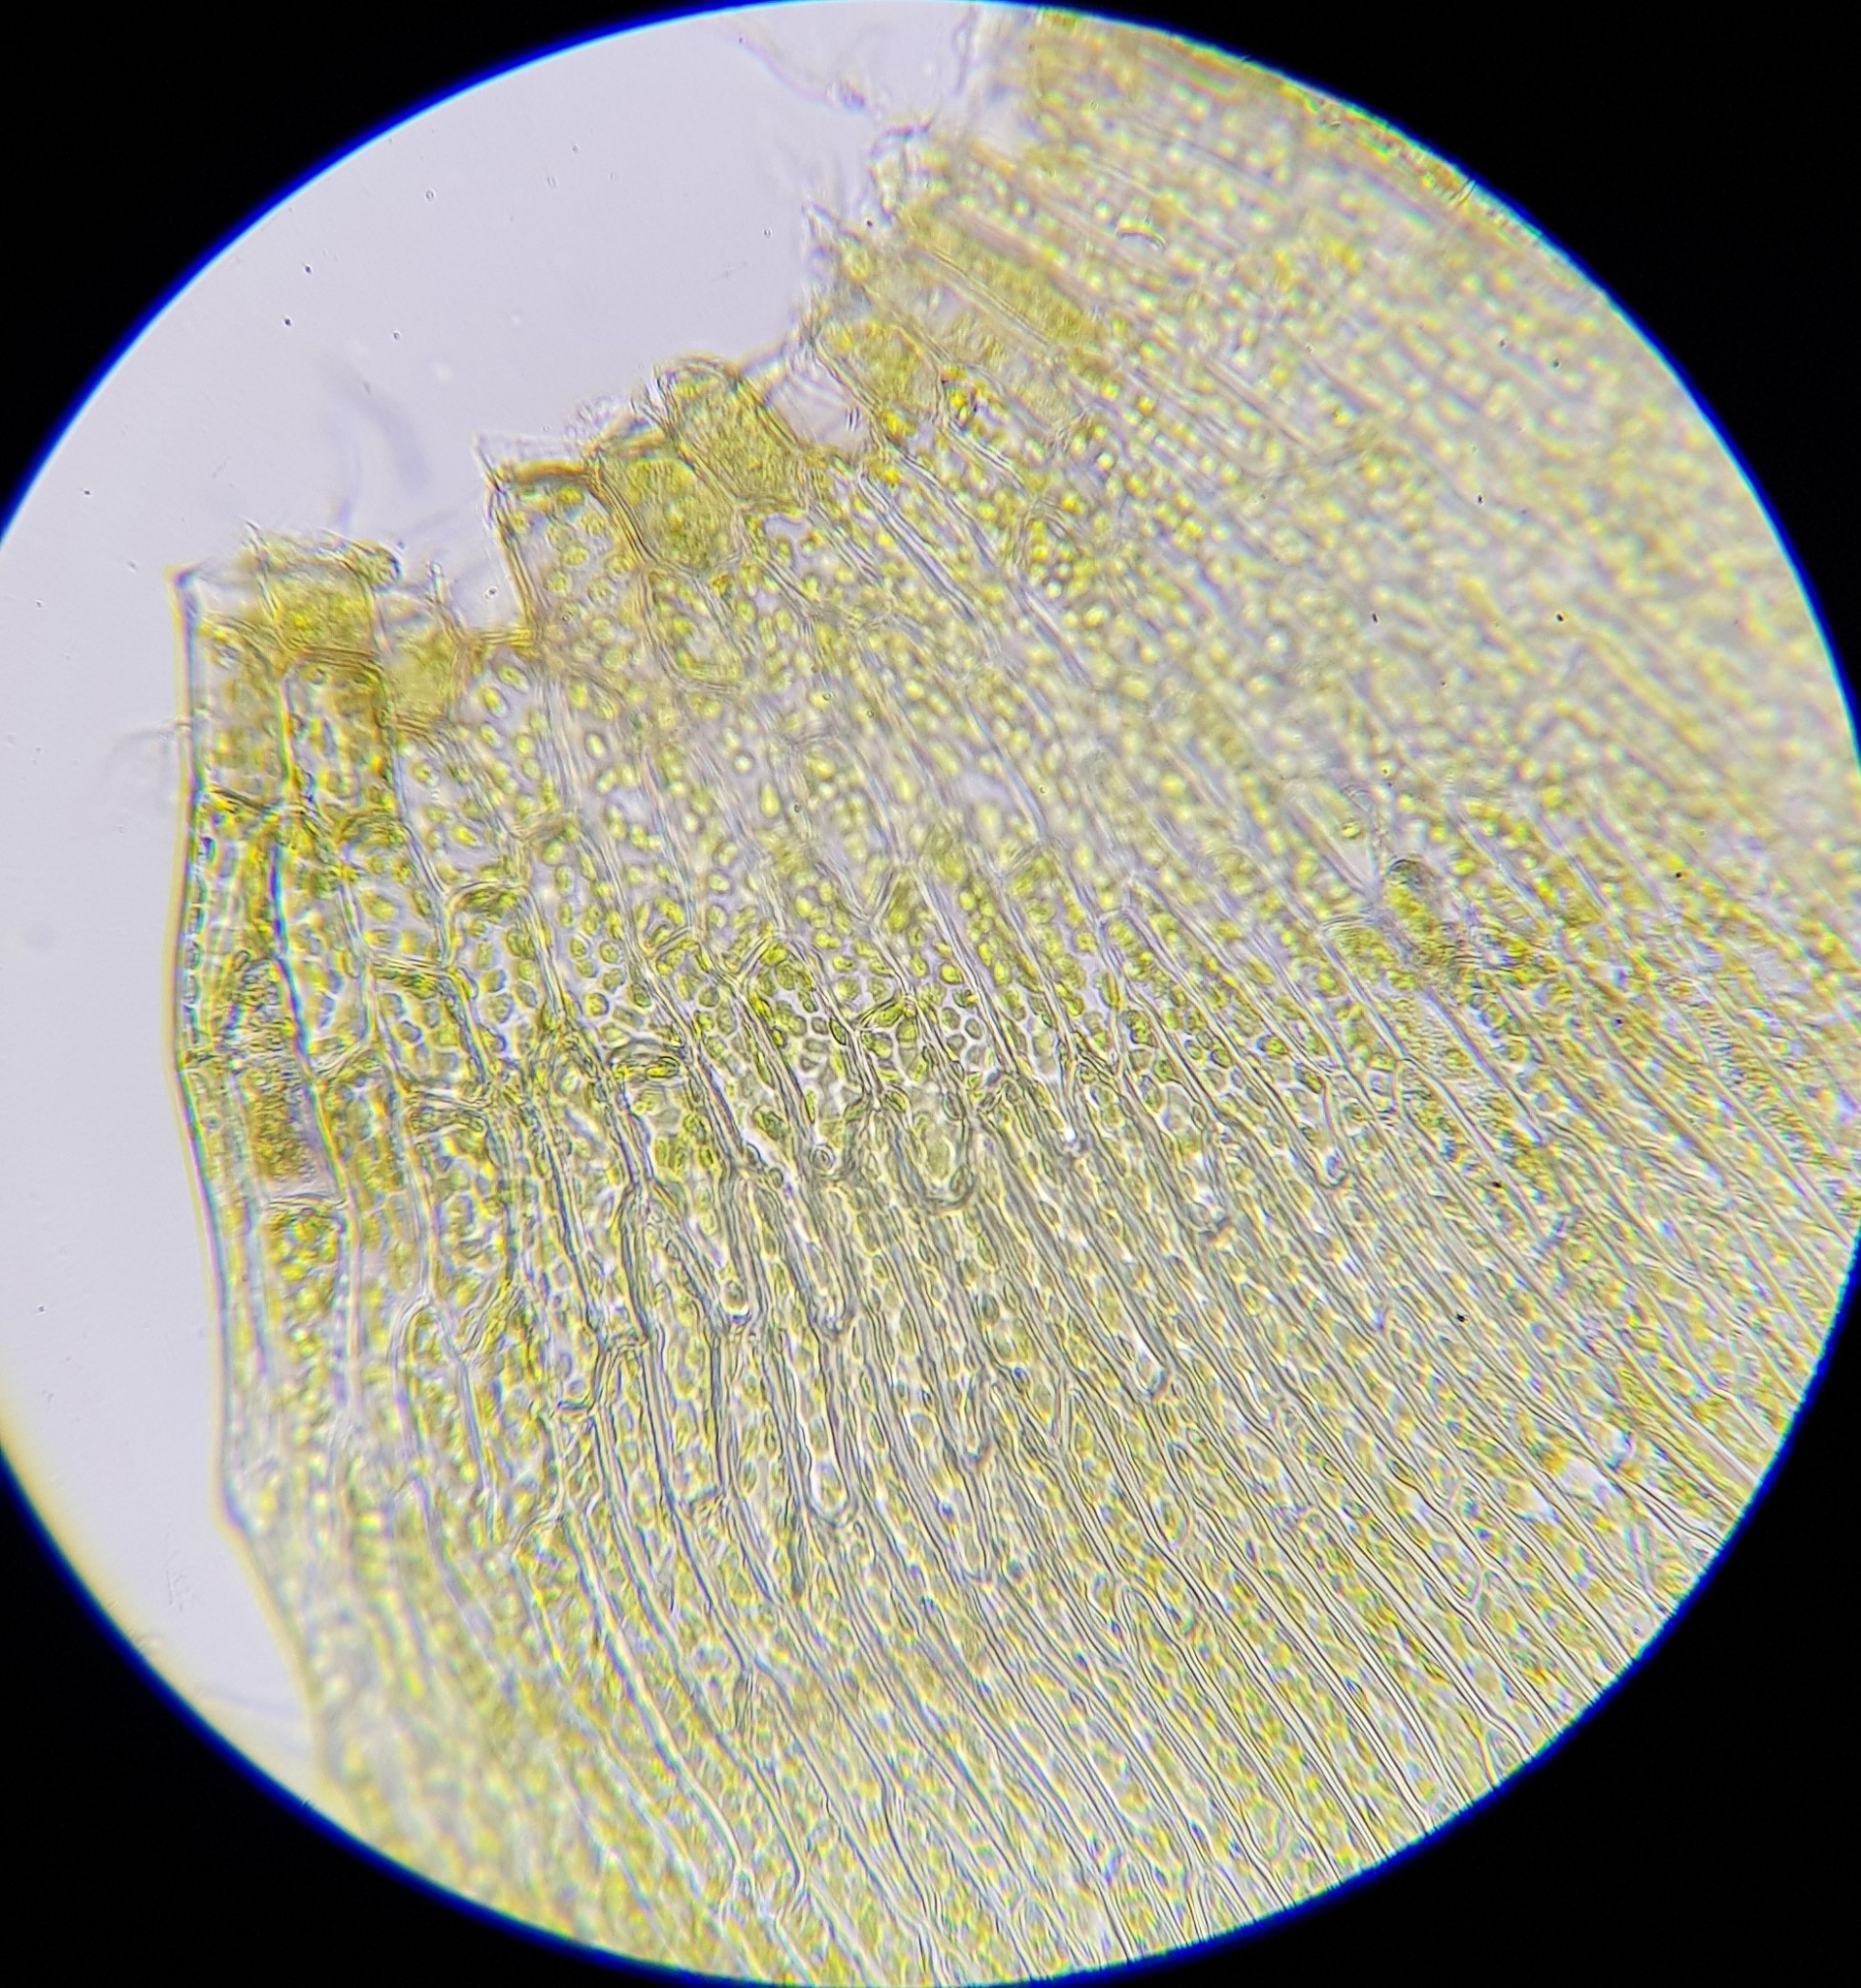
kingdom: Plantae
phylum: Bryophyta
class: Bryopsida
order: Hypnales
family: Calliergonaceae
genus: Warnstorfia
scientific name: Warnstorfia fluitans
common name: Floating hook moss
